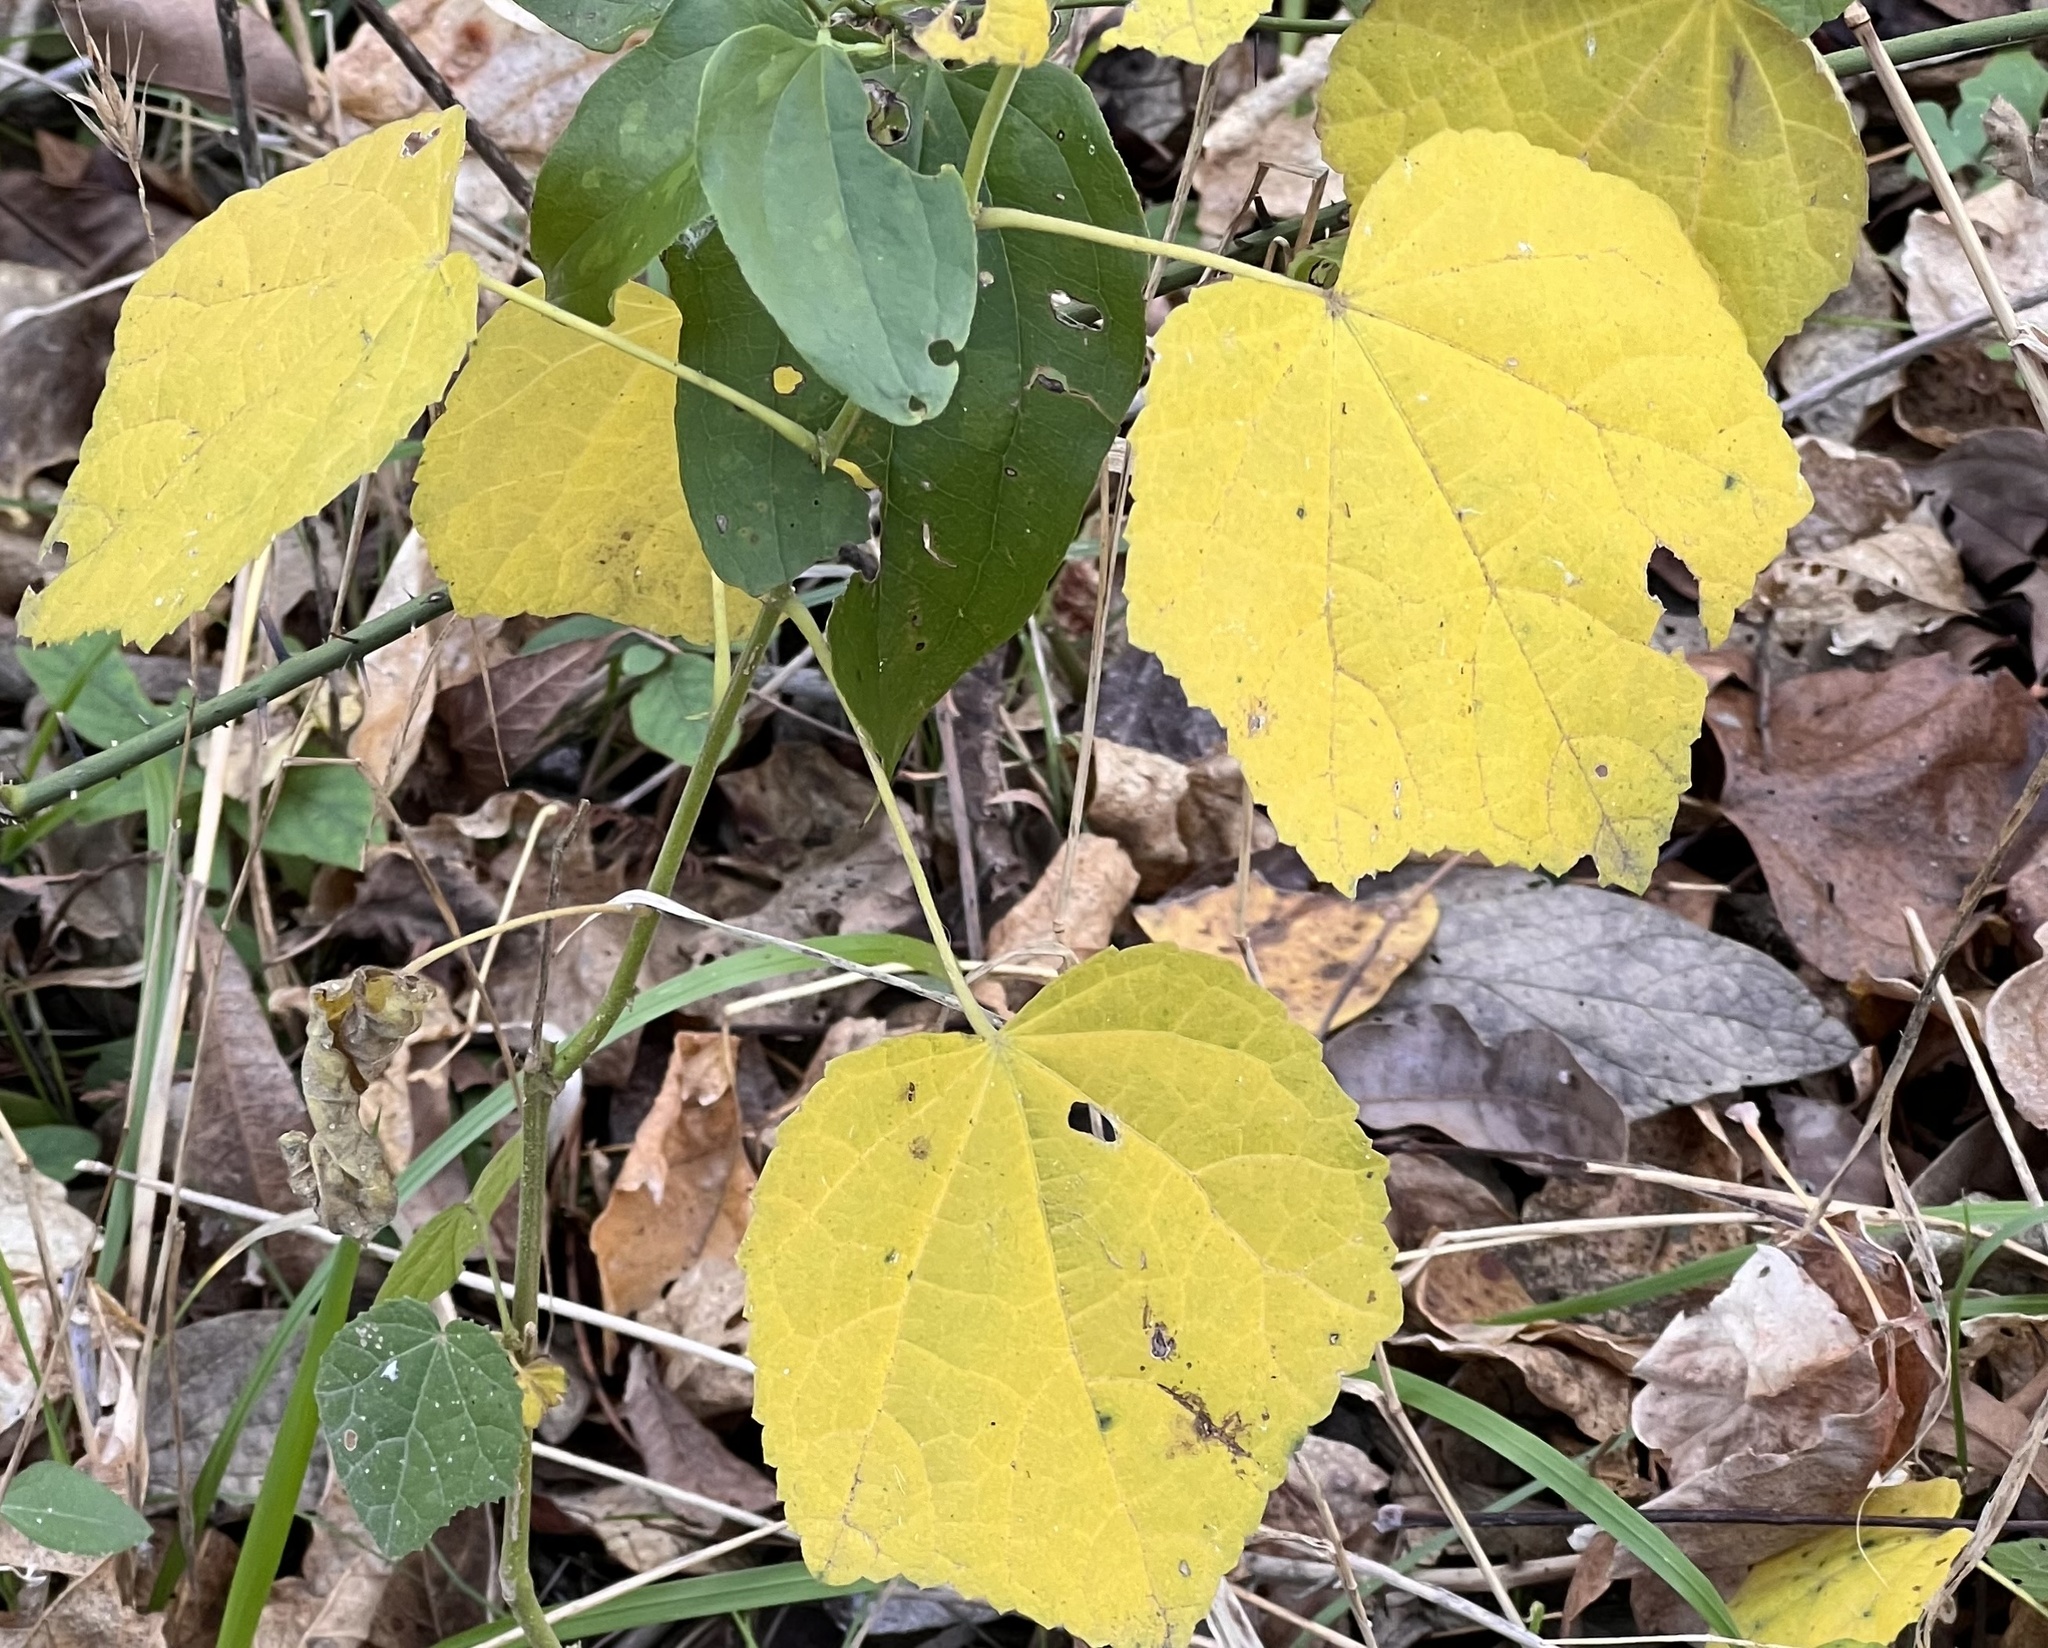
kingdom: Plantae
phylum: Tracheophyta
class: Magnoliopsida
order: Malvales
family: Malvaceae
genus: Malvaviscus
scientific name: Malvaviscus arboreus
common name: Wax mallow
